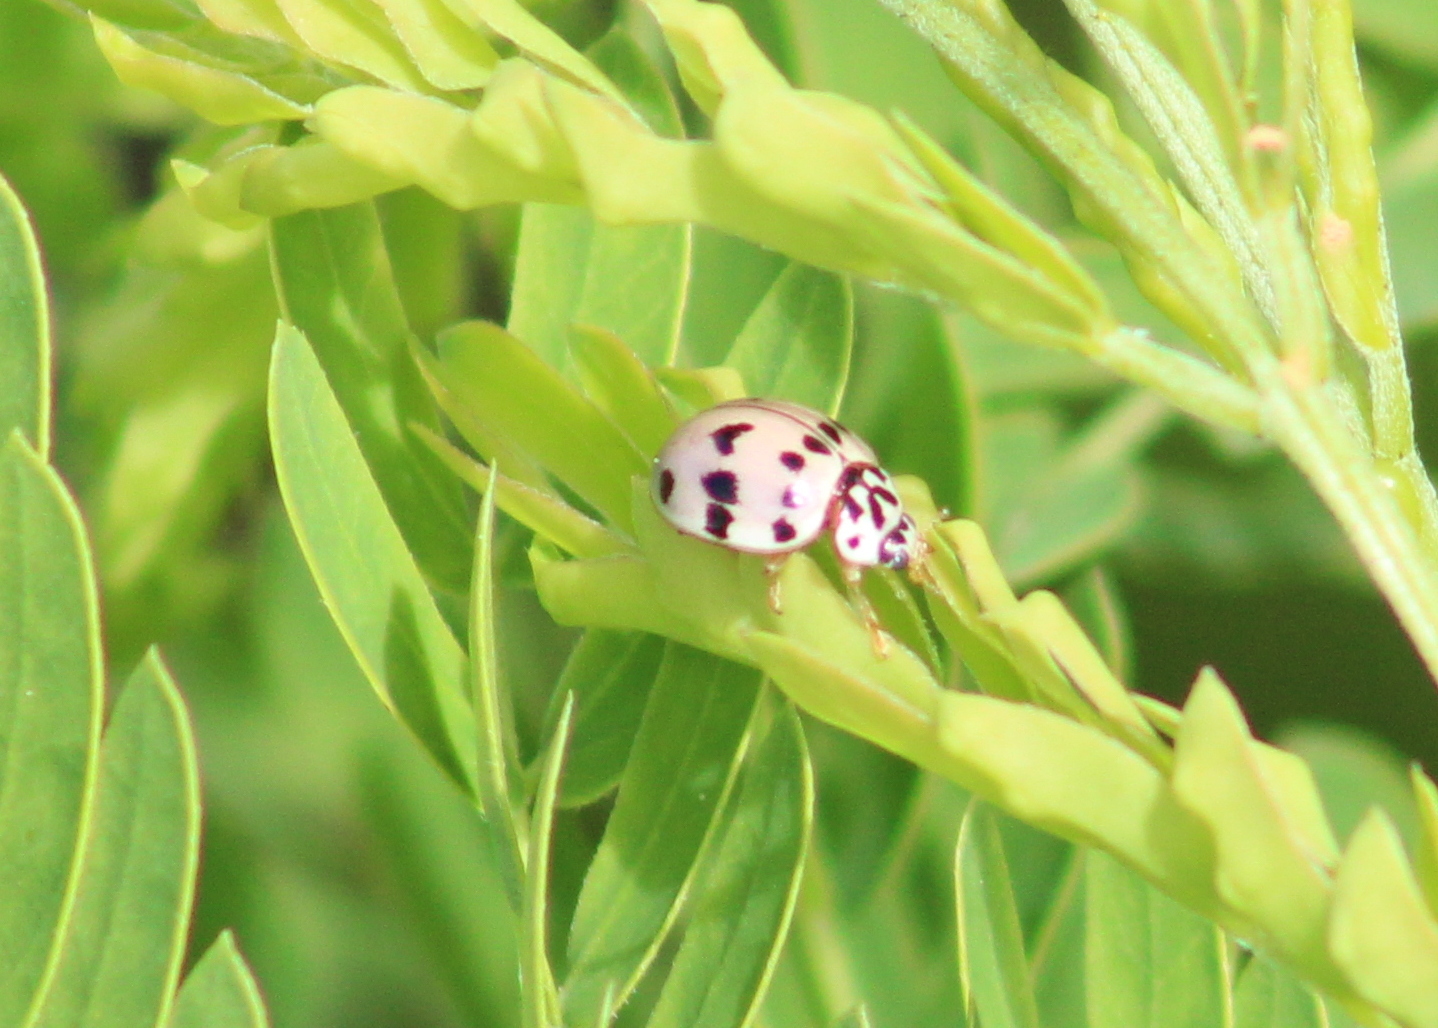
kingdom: Animalia
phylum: Arthropoda
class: Insecta
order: Coleoptera
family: Coccinellidae
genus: Olla
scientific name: Olla v-nigrum
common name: Ashy gray lady beetle
